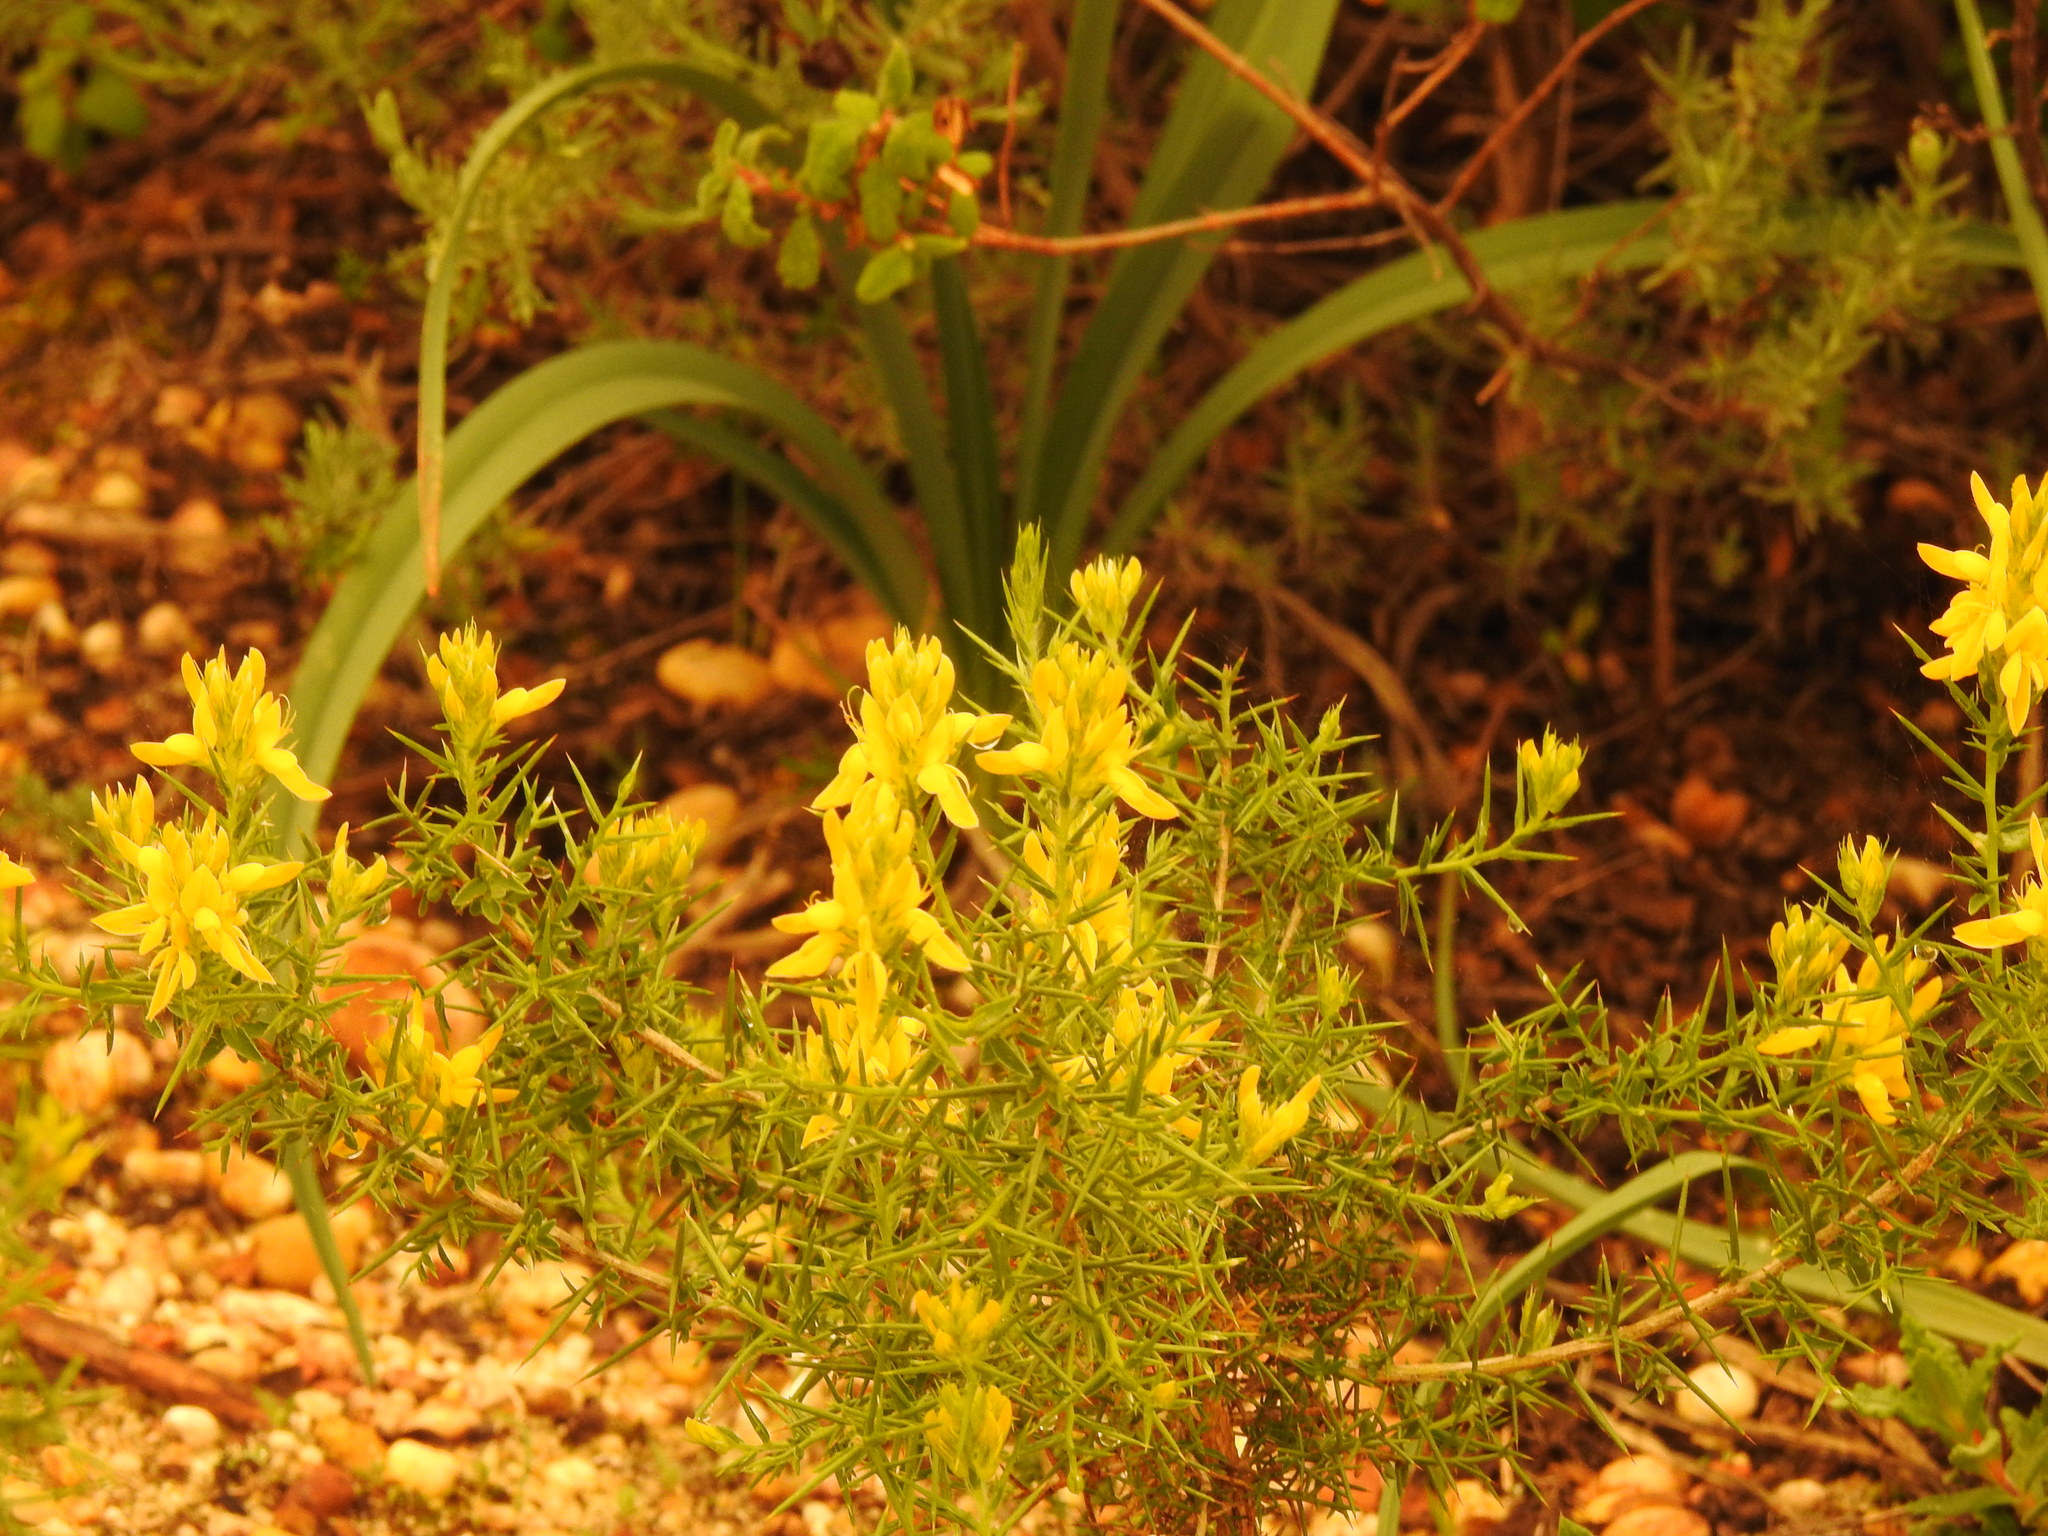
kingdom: Plantae
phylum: Tracheophyta
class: Magnoliopsida
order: Fabales
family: Fabaceae
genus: Genista
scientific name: Genista hirsuta
